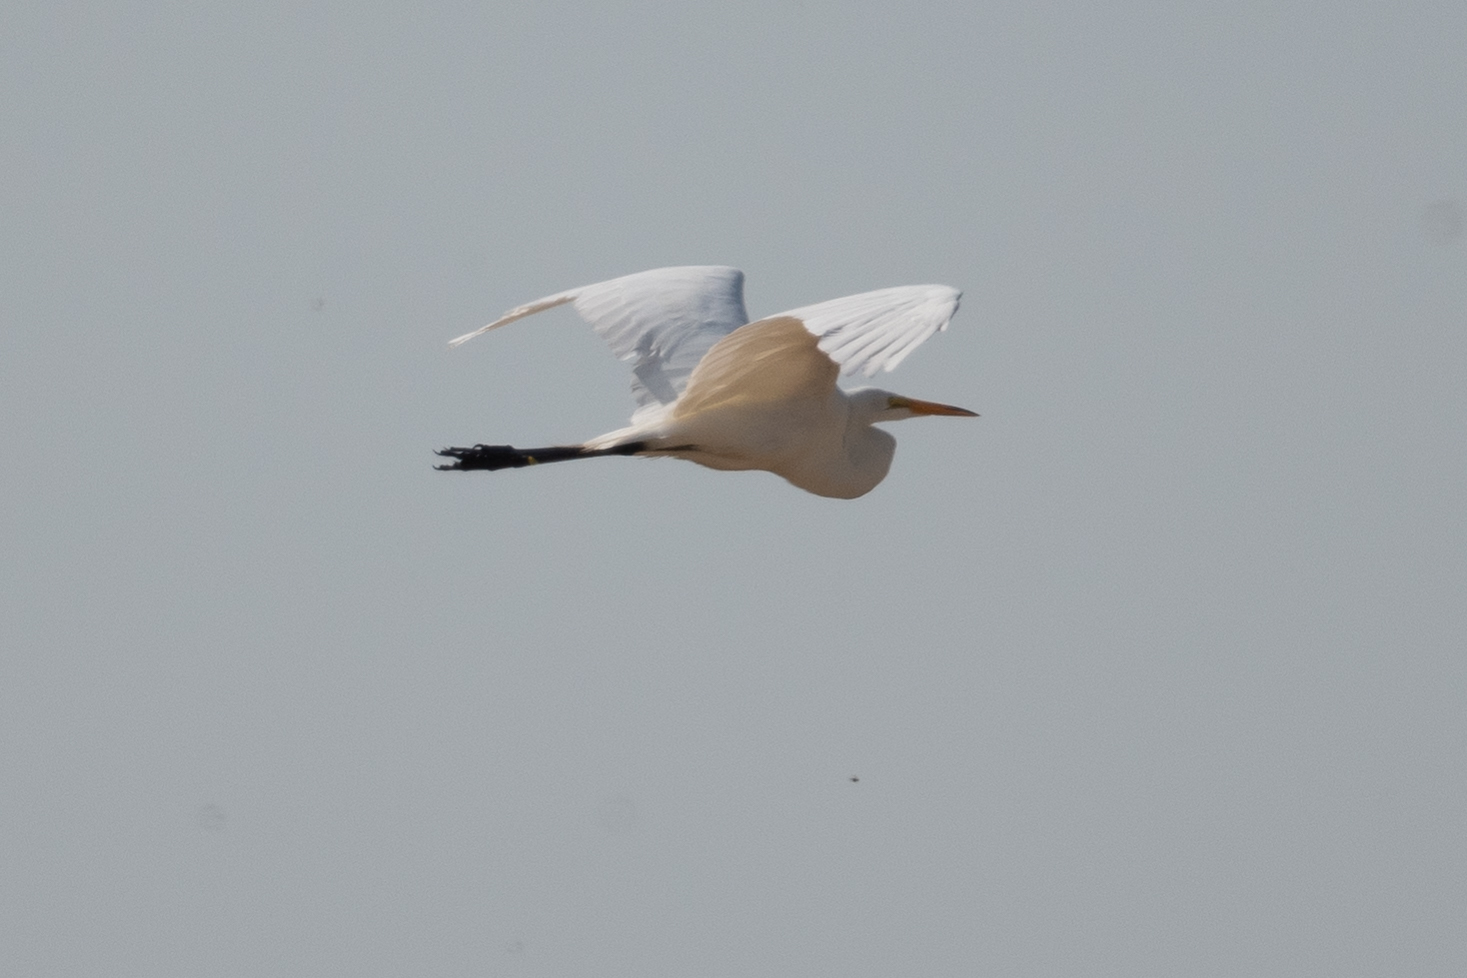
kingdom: Animalia
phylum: Chordata
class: Aves
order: Pelecaniformes
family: Ardeidae
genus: Ardea
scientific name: Ardea alba
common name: Great egret
